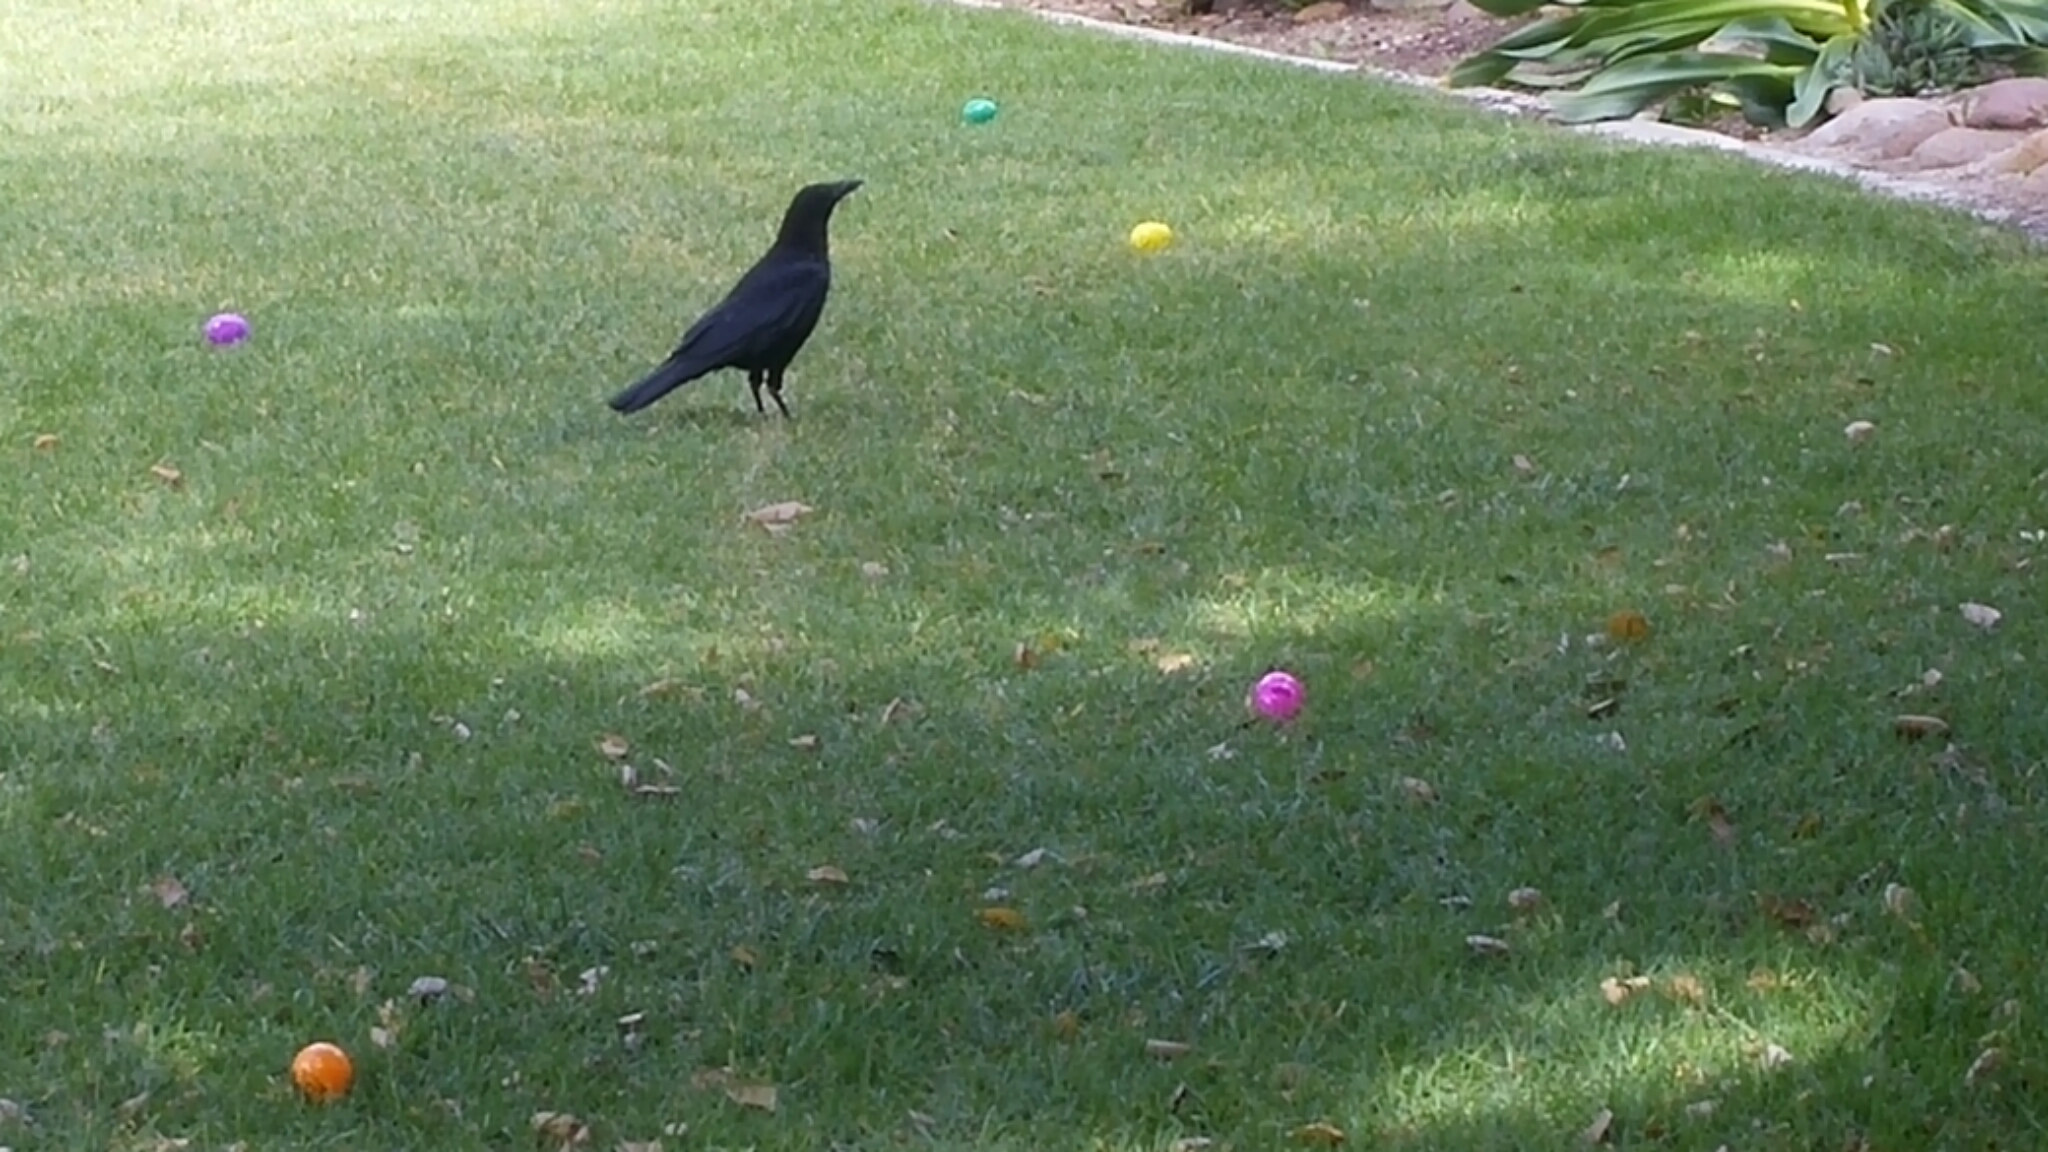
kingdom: Animalia
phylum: Chordata
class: Aves
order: Passeriformes
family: Corvidae
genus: Corvus
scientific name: Corvus brachyrhynchos
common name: American crow
